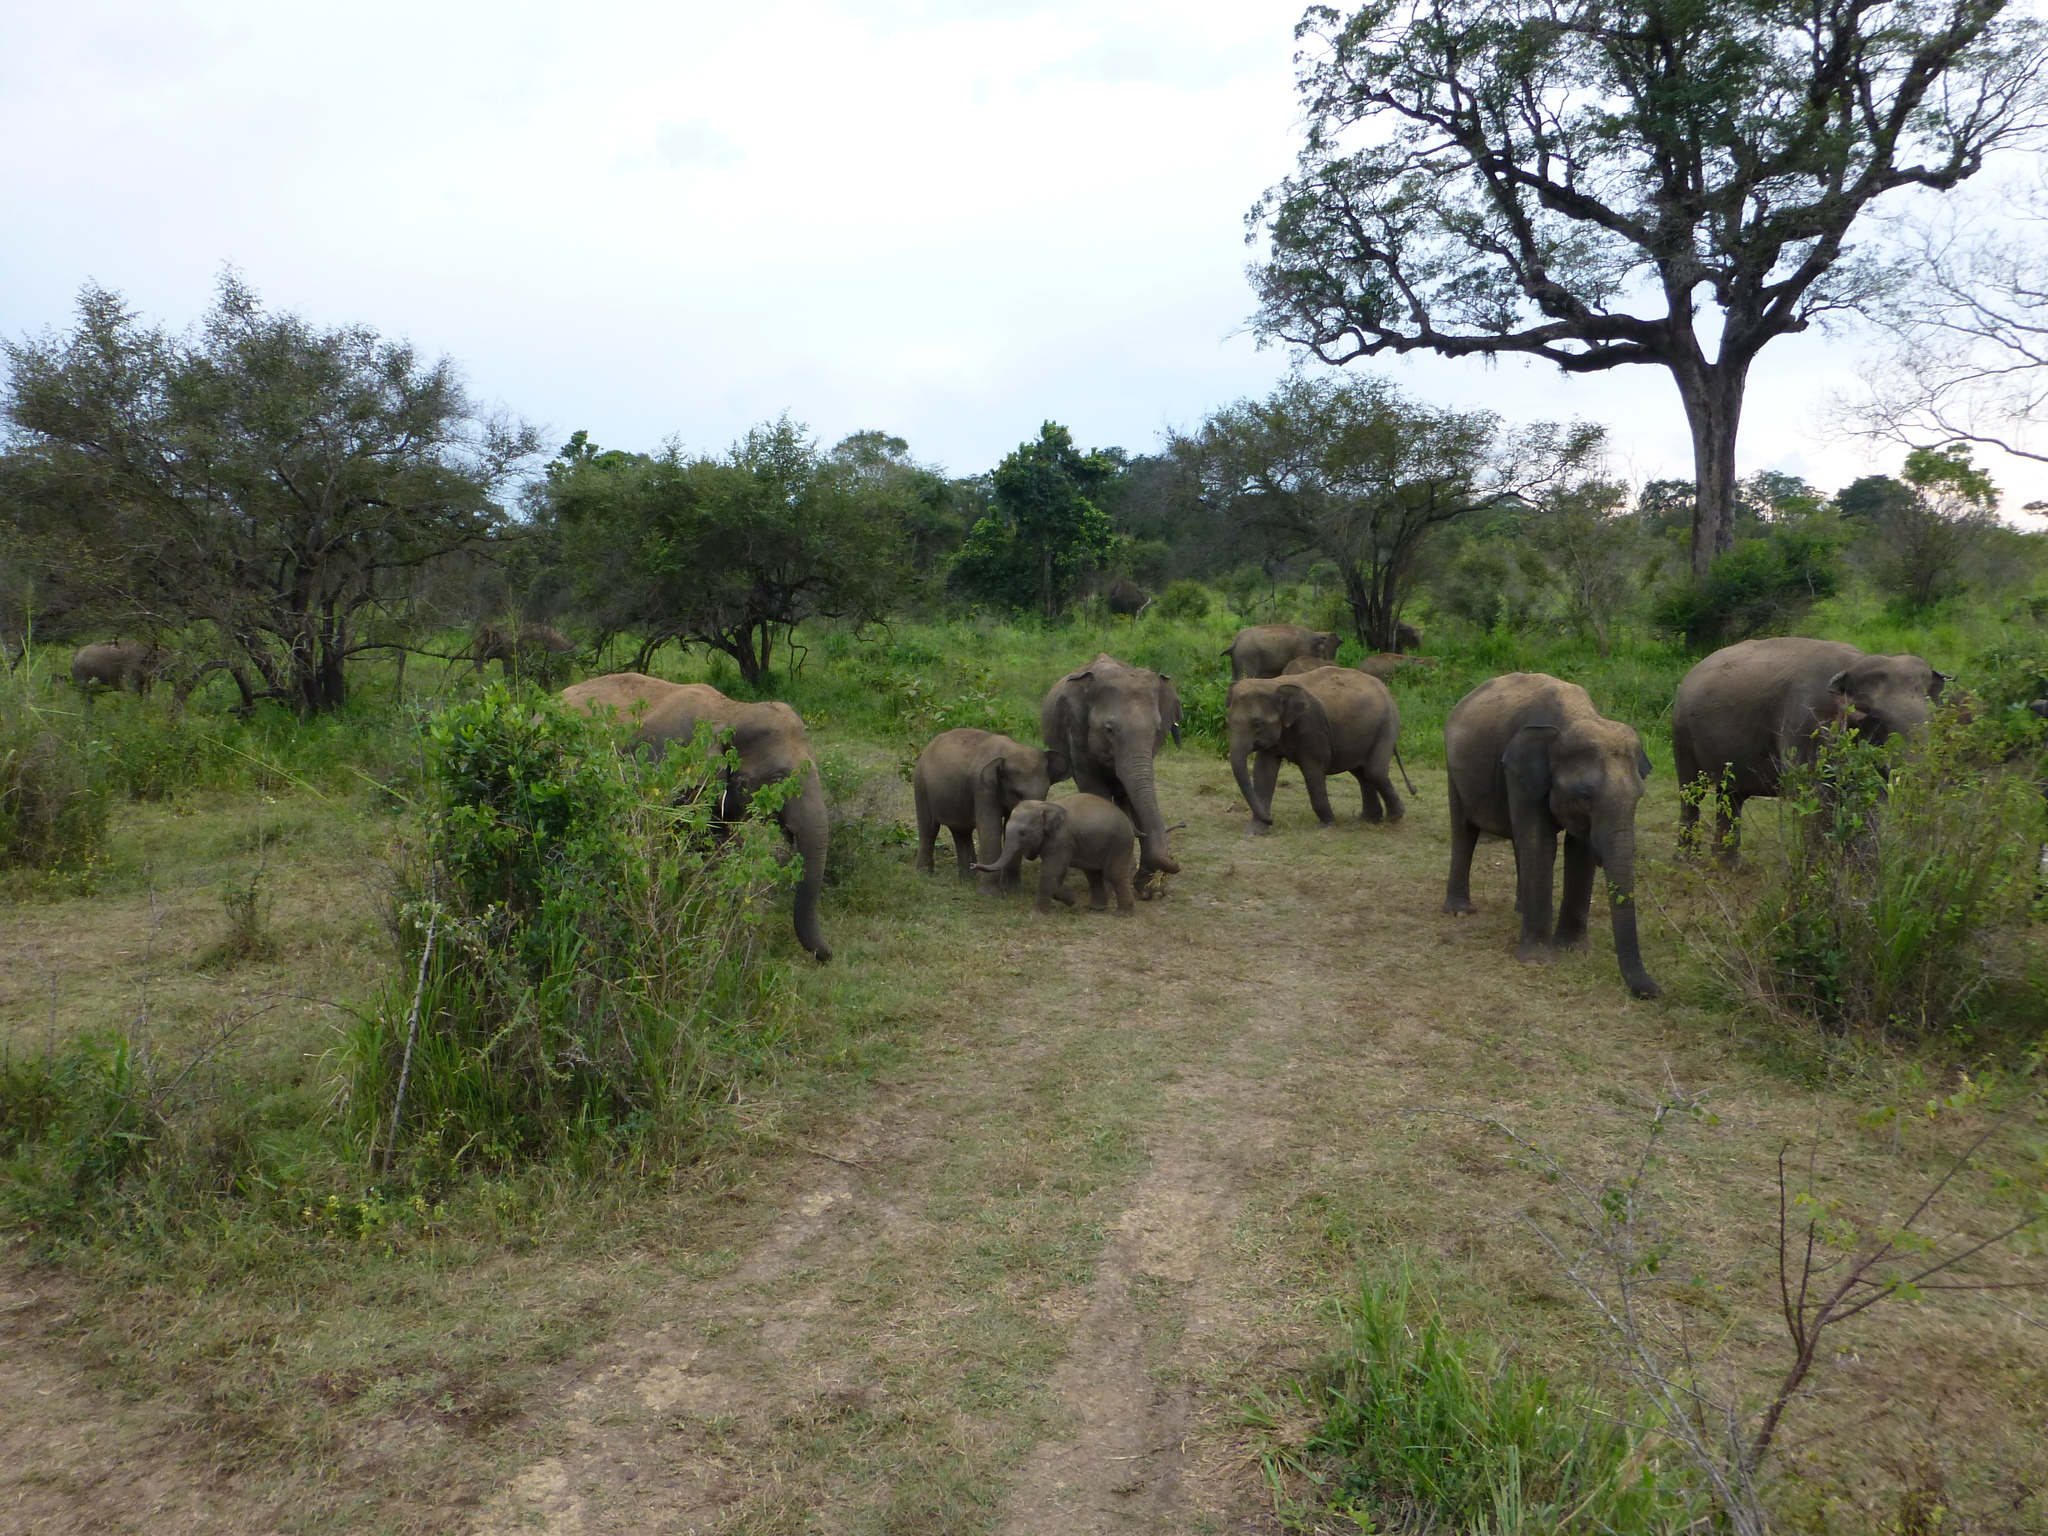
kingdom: Animalia
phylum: Chordata
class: Mammalia
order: Proboscidea
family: Elephantidae
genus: Elephas
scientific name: Elephas maximus
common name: Asian elephant
